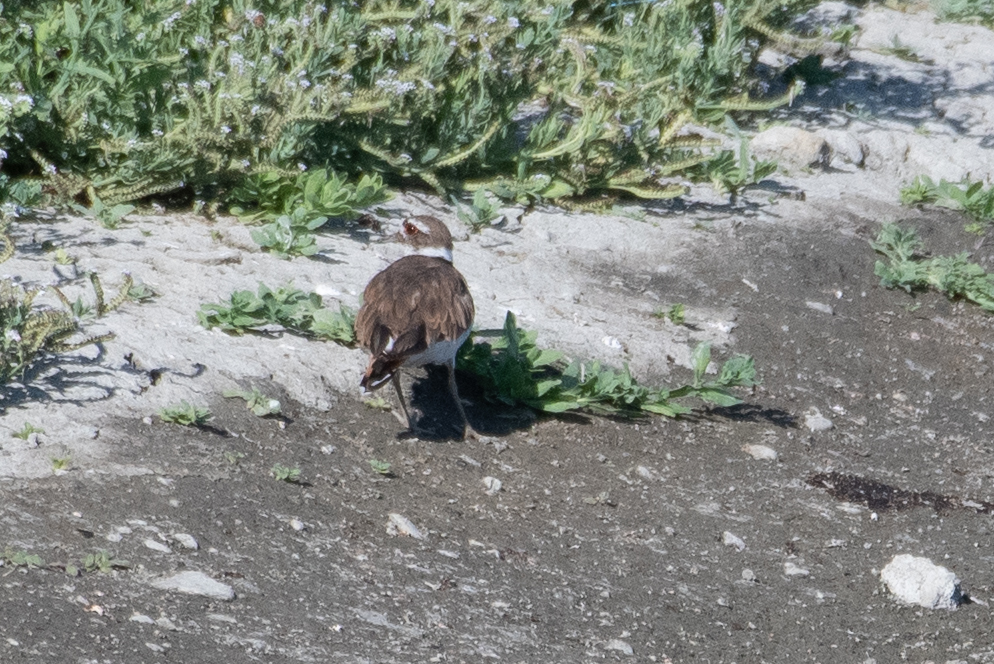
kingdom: Animalia
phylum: Chordata
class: Aves
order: Charadriiformes
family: Charadriidae
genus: Charadrius
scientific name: Charadrius vociferus
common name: Killdeer
